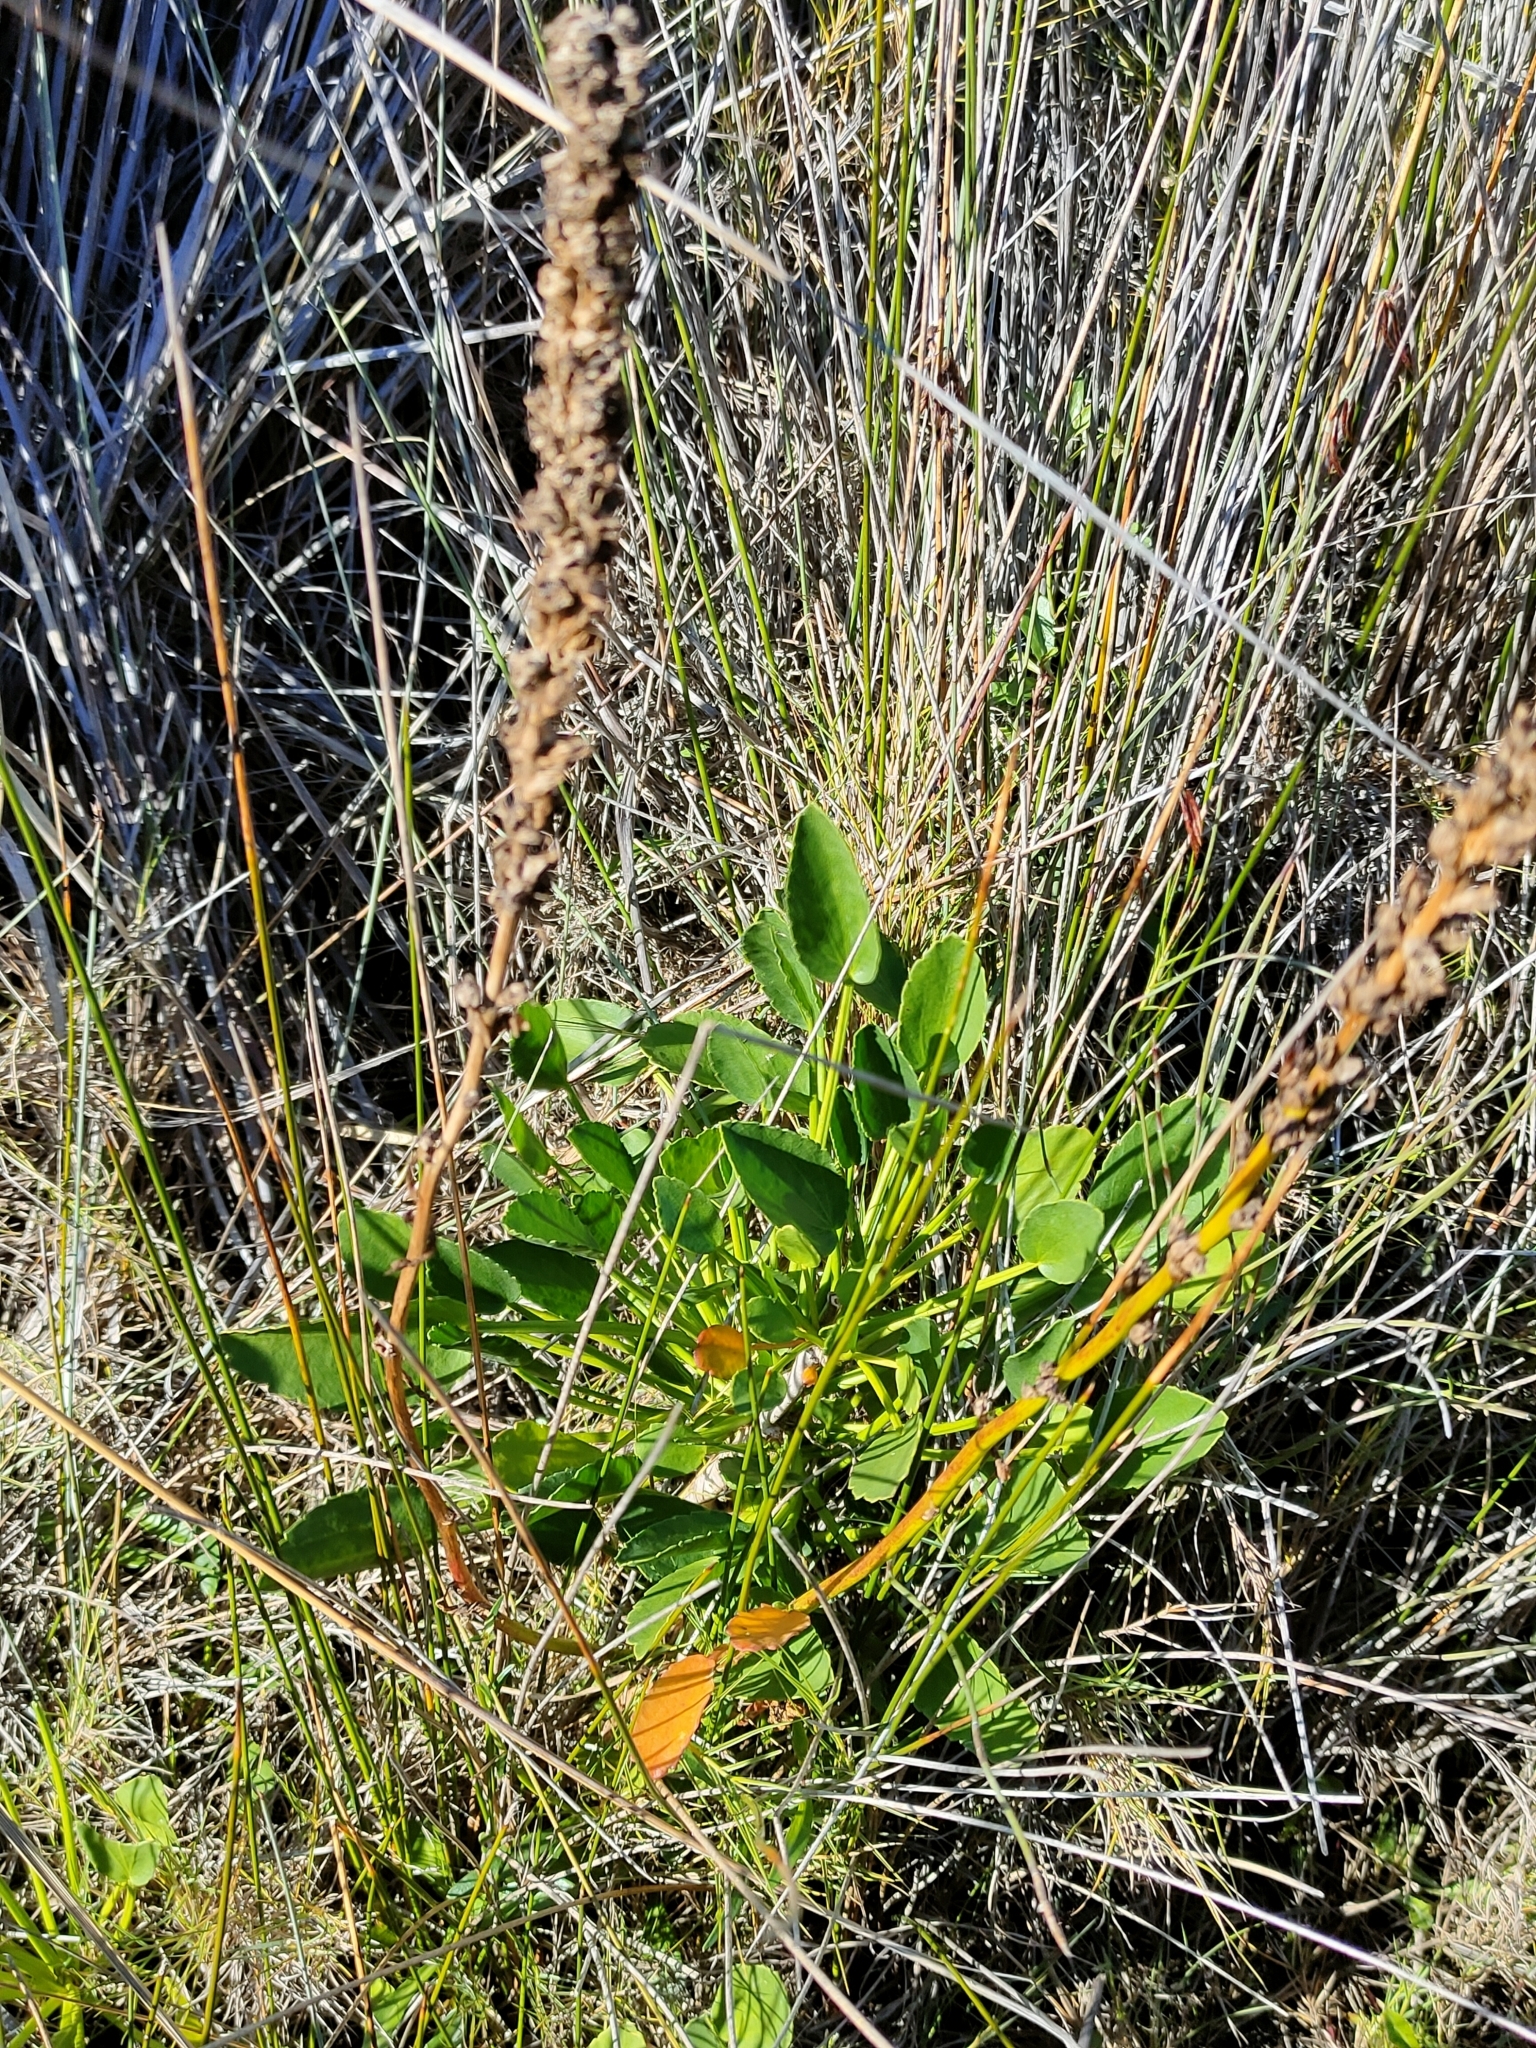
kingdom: Plantae
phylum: Tracheophyta
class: Magnoliopsida
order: Malvales
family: Malvaceae
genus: Lawrencia
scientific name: Lawrencia spicata
